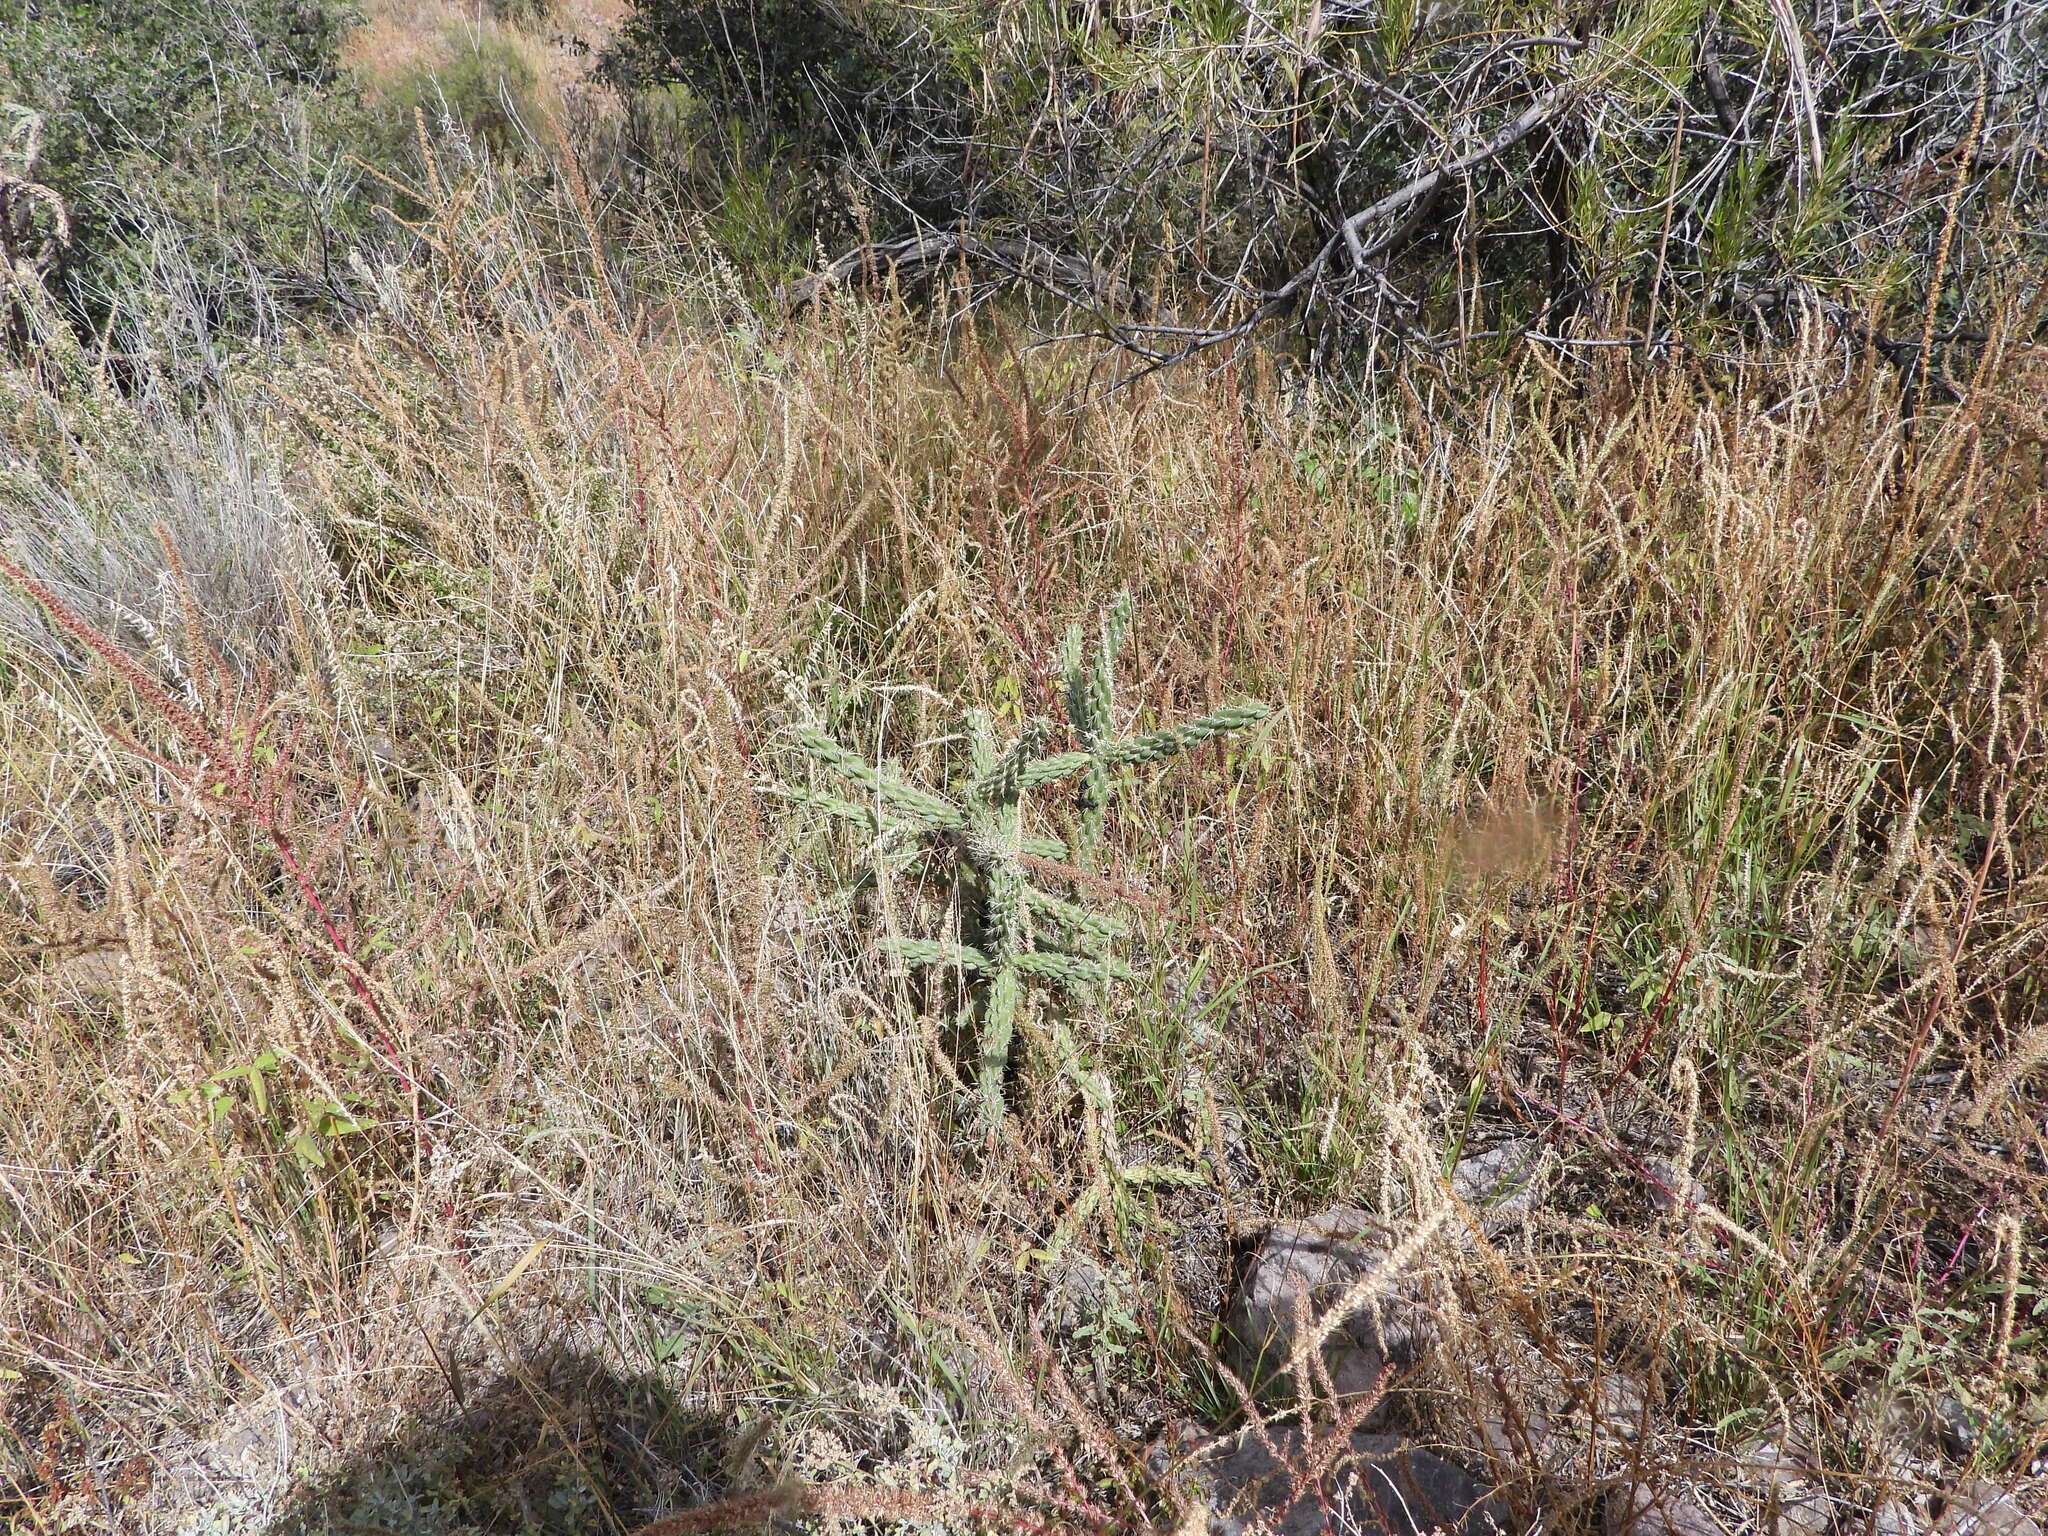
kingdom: Plantae
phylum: Tracheophyta
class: Magnoliopsida
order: Caryophyllales
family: Cactaceae
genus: Cylindropuntia
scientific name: Cylindropuntia imbricata
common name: Candelabrum cactus
